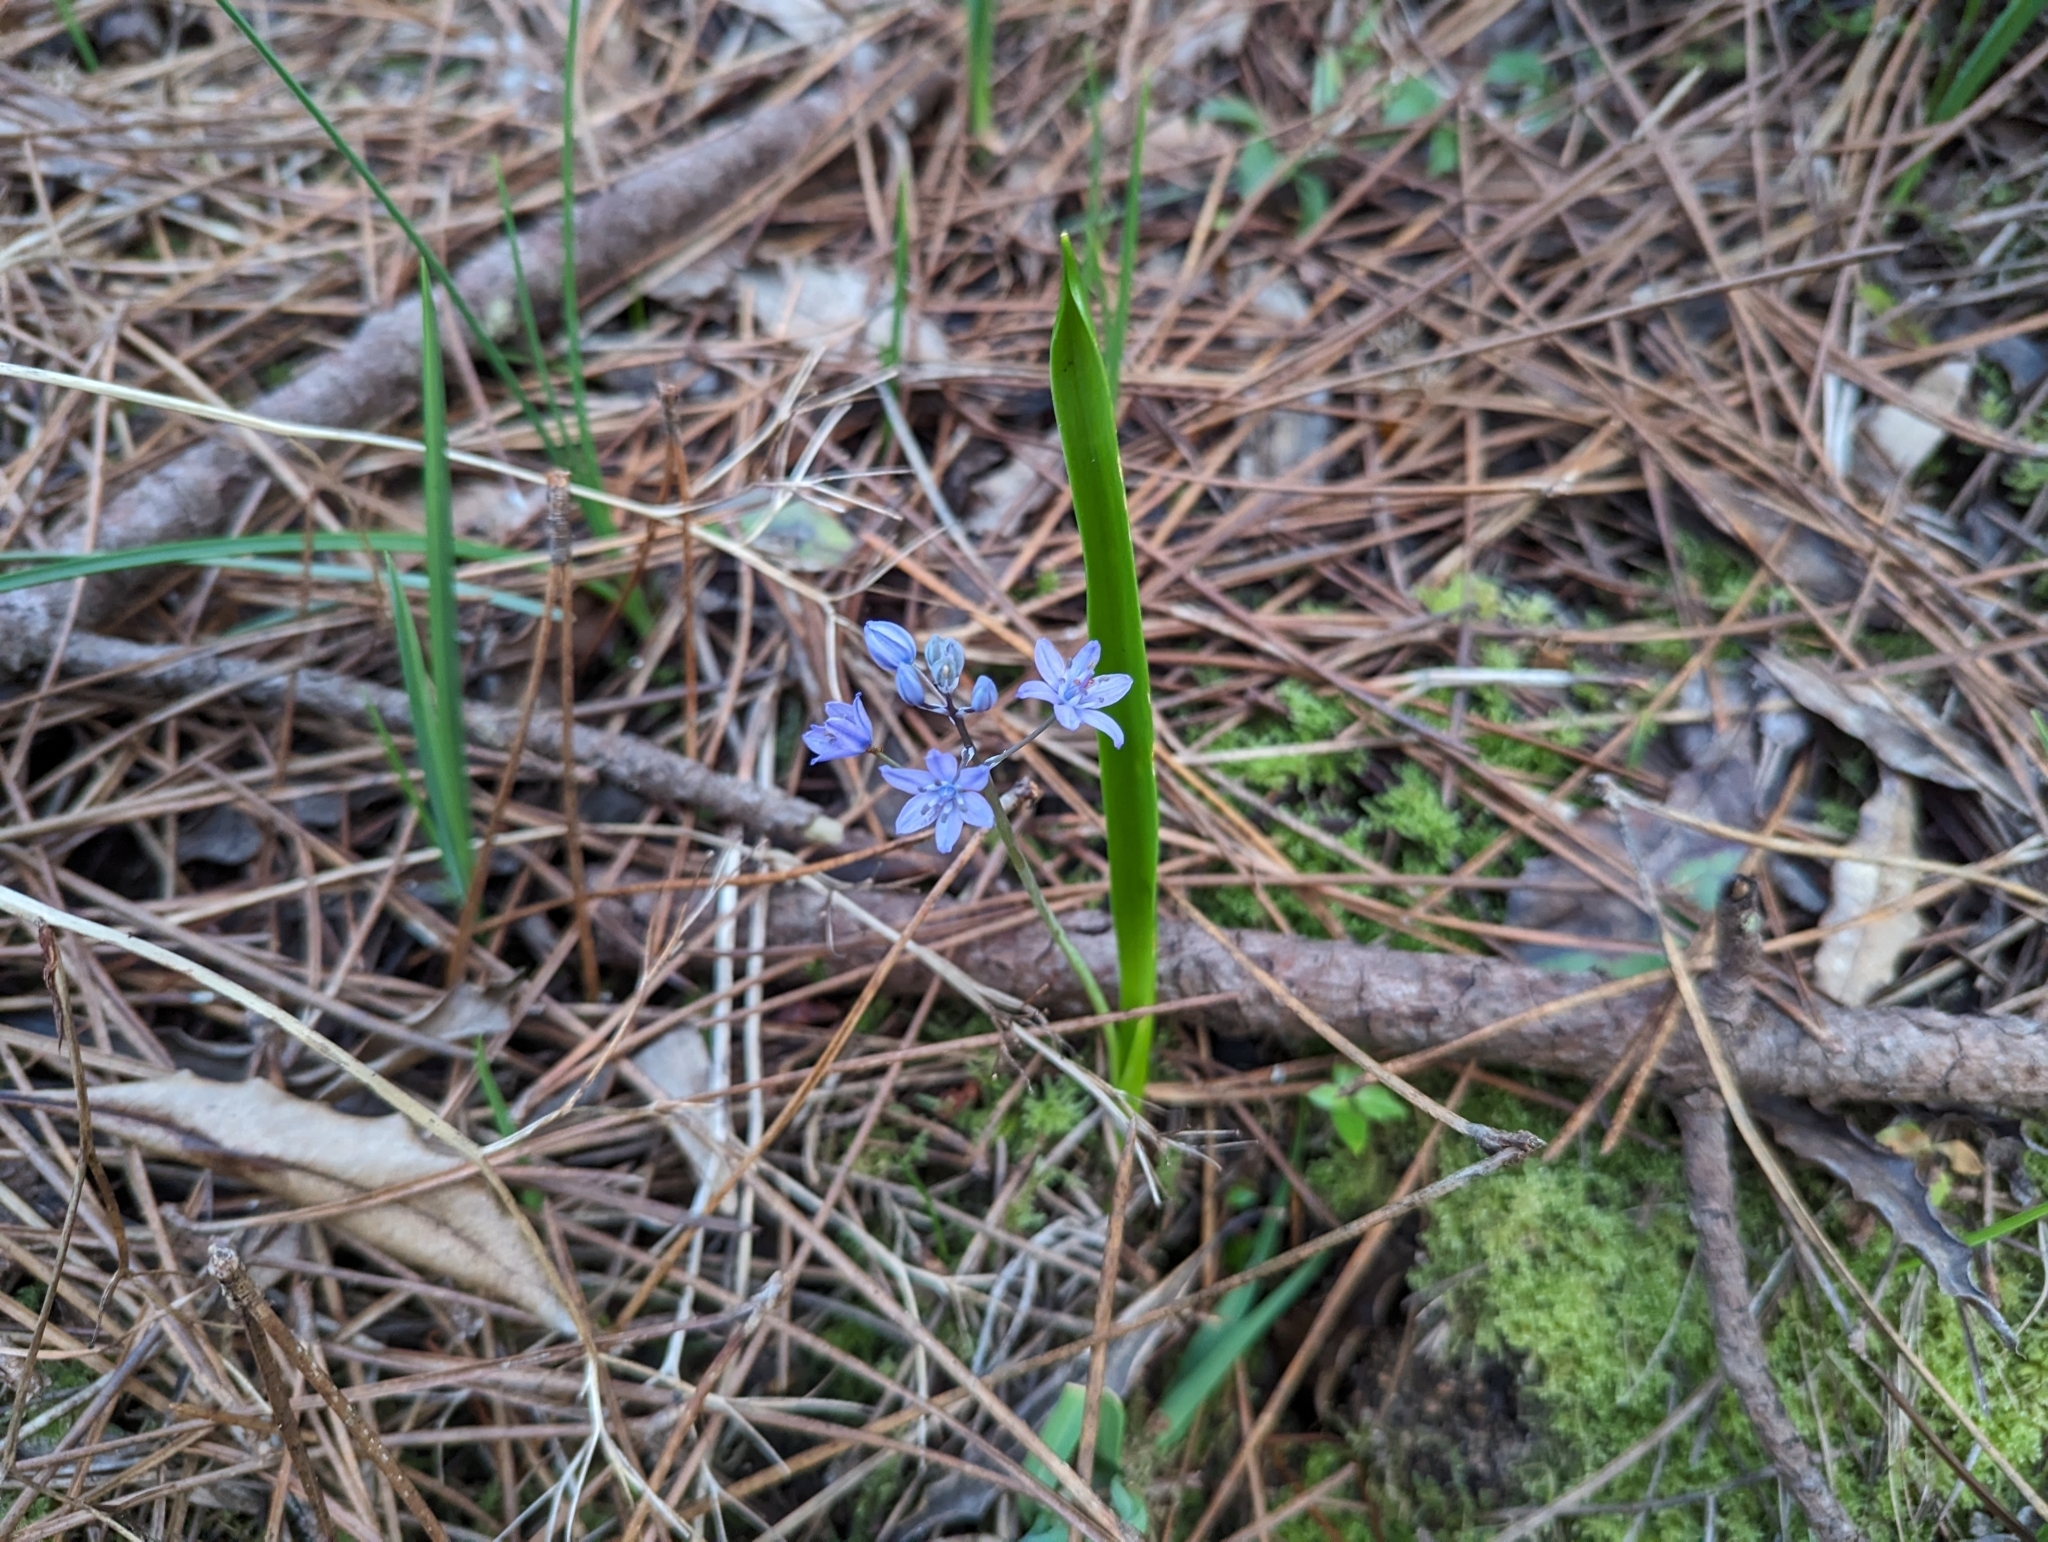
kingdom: Plantae
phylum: Tracheophyta
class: Liliopsida
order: Asparagales
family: Asparagaceae
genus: Scilla
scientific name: Scilla monophyllos
